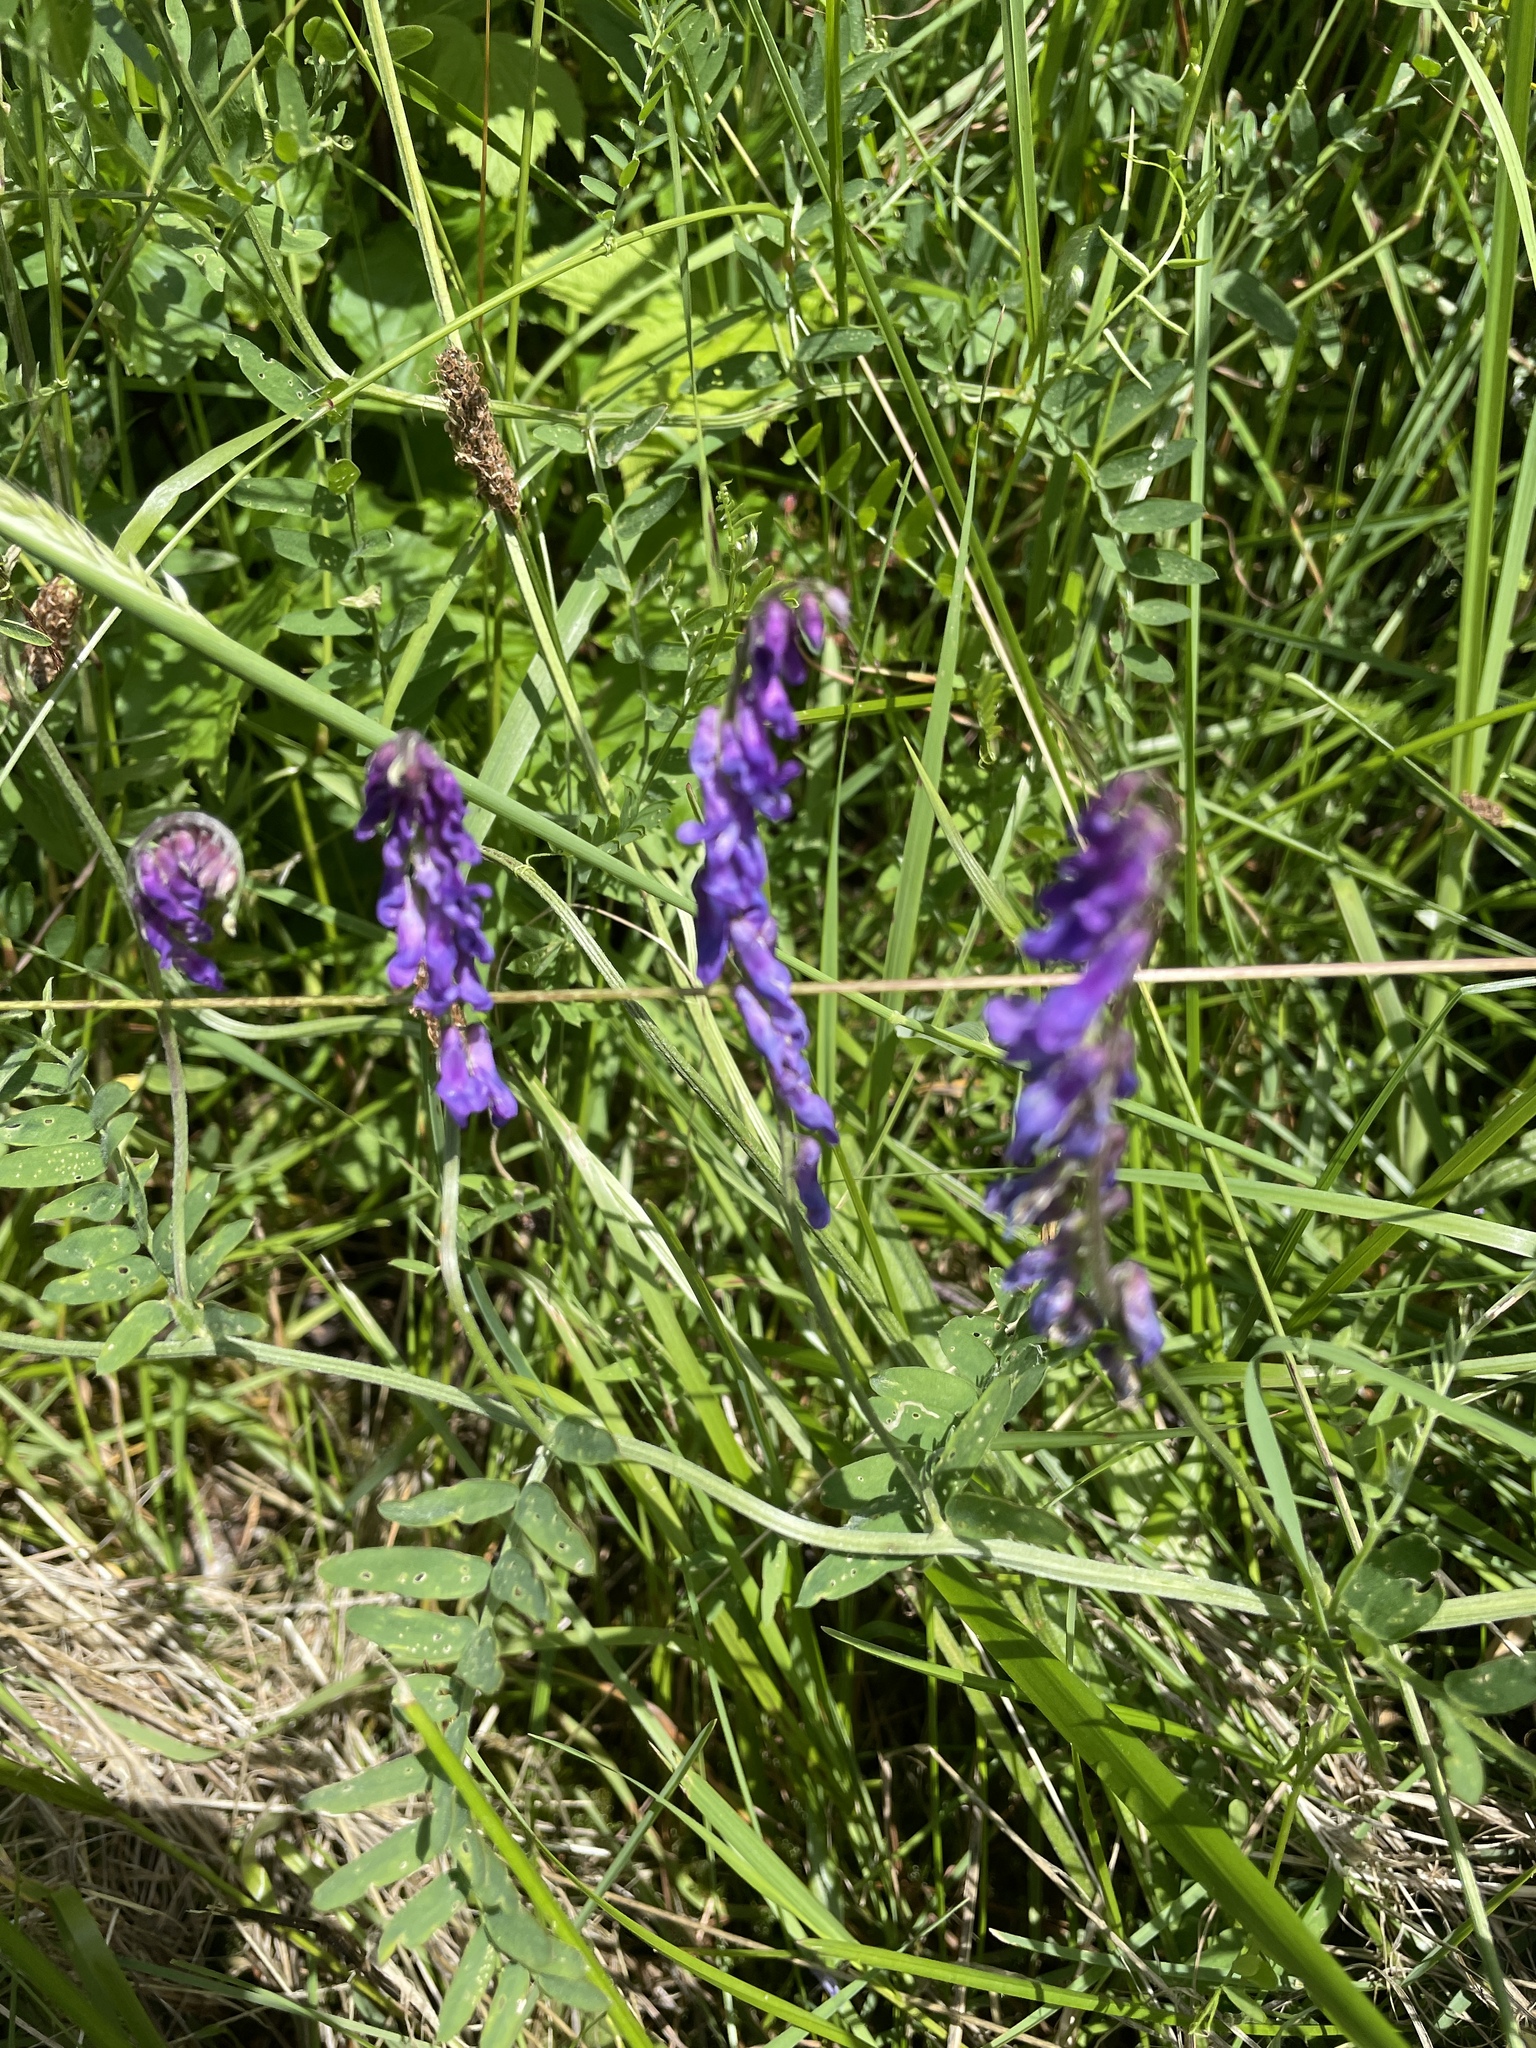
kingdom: Plantae
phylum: Tracheophyta
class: Magnoliopsida
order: Fabales
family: Fabaceae
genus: Vicia
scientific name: Vicia cracca
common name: Bird vetch
